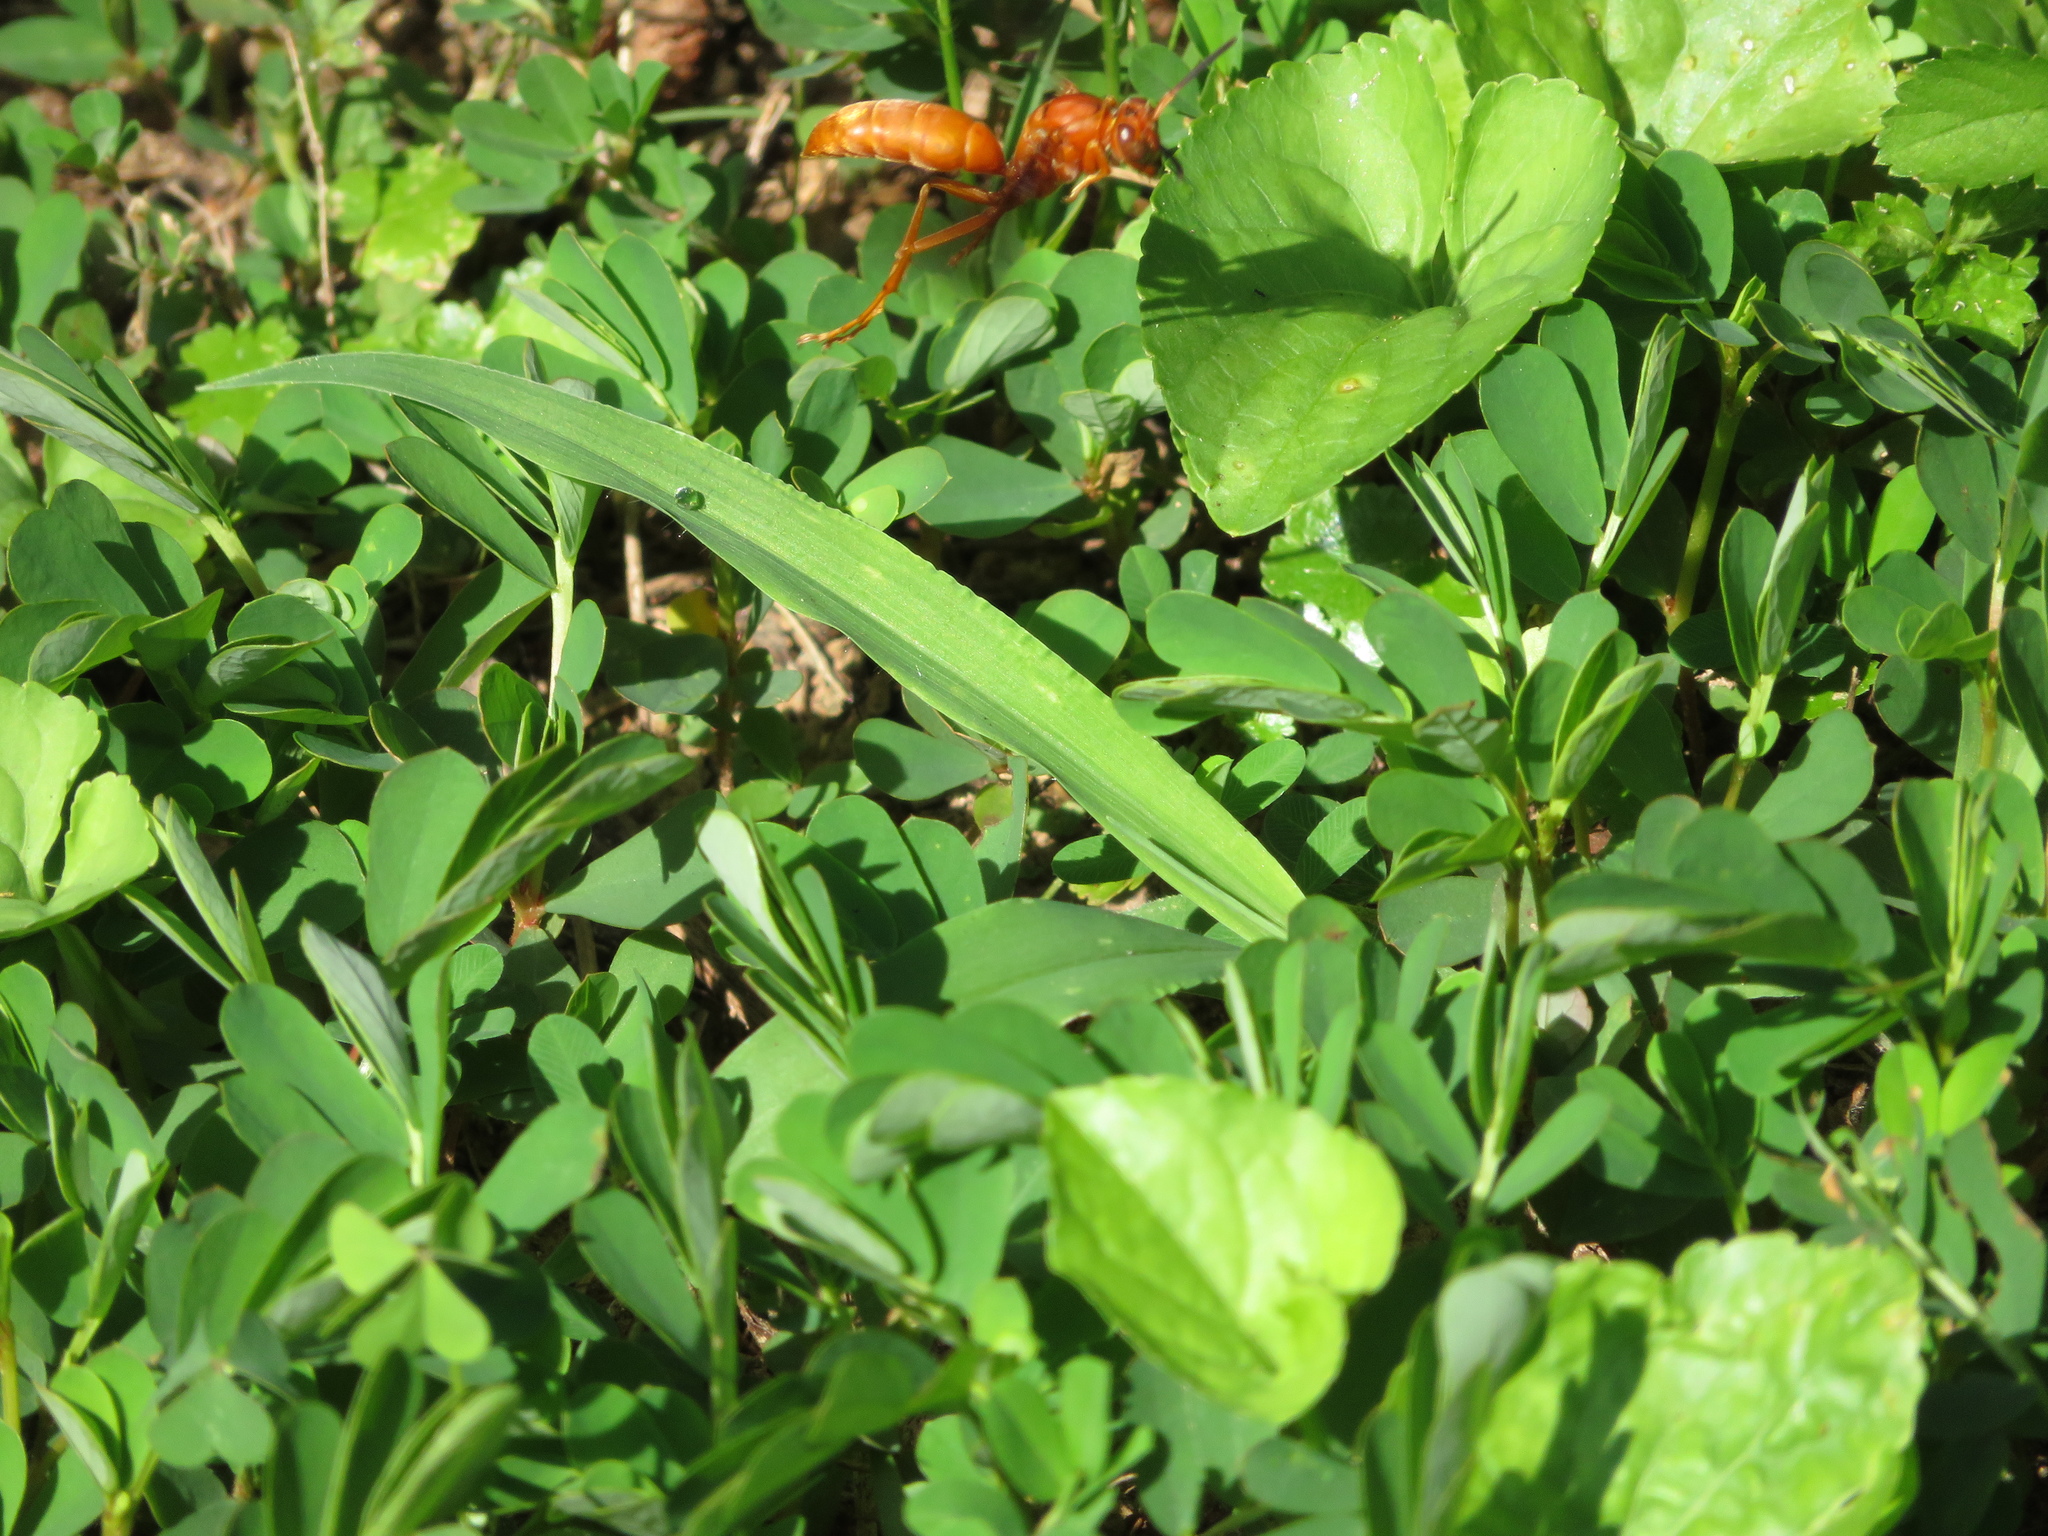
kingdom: Animalia
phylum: Arthropoda
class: Insecta
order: Hymenoptera
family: Vespidae
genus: Fuscopolistes
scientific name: Fuscopolistes
